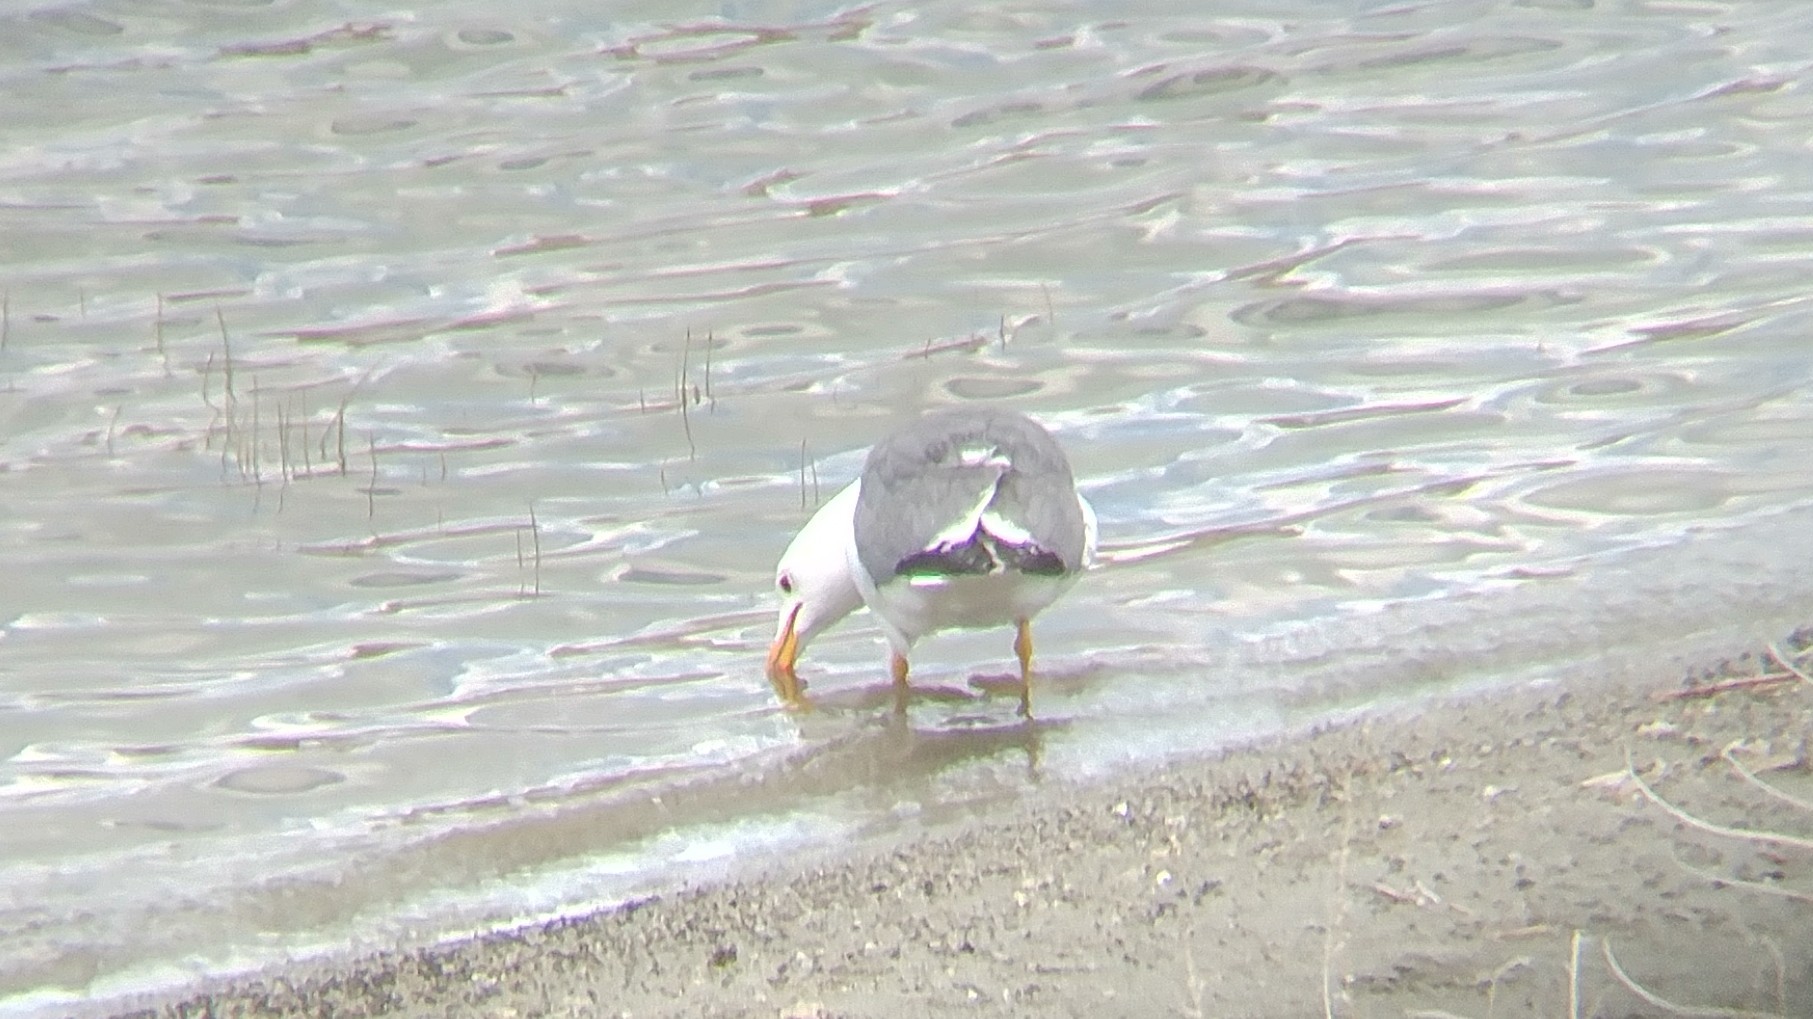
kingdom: Animalia
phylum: Chordata
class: Aves
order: Charadriiformes
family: Laridae
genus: Larus
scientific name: Larus californicus
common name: California gull
